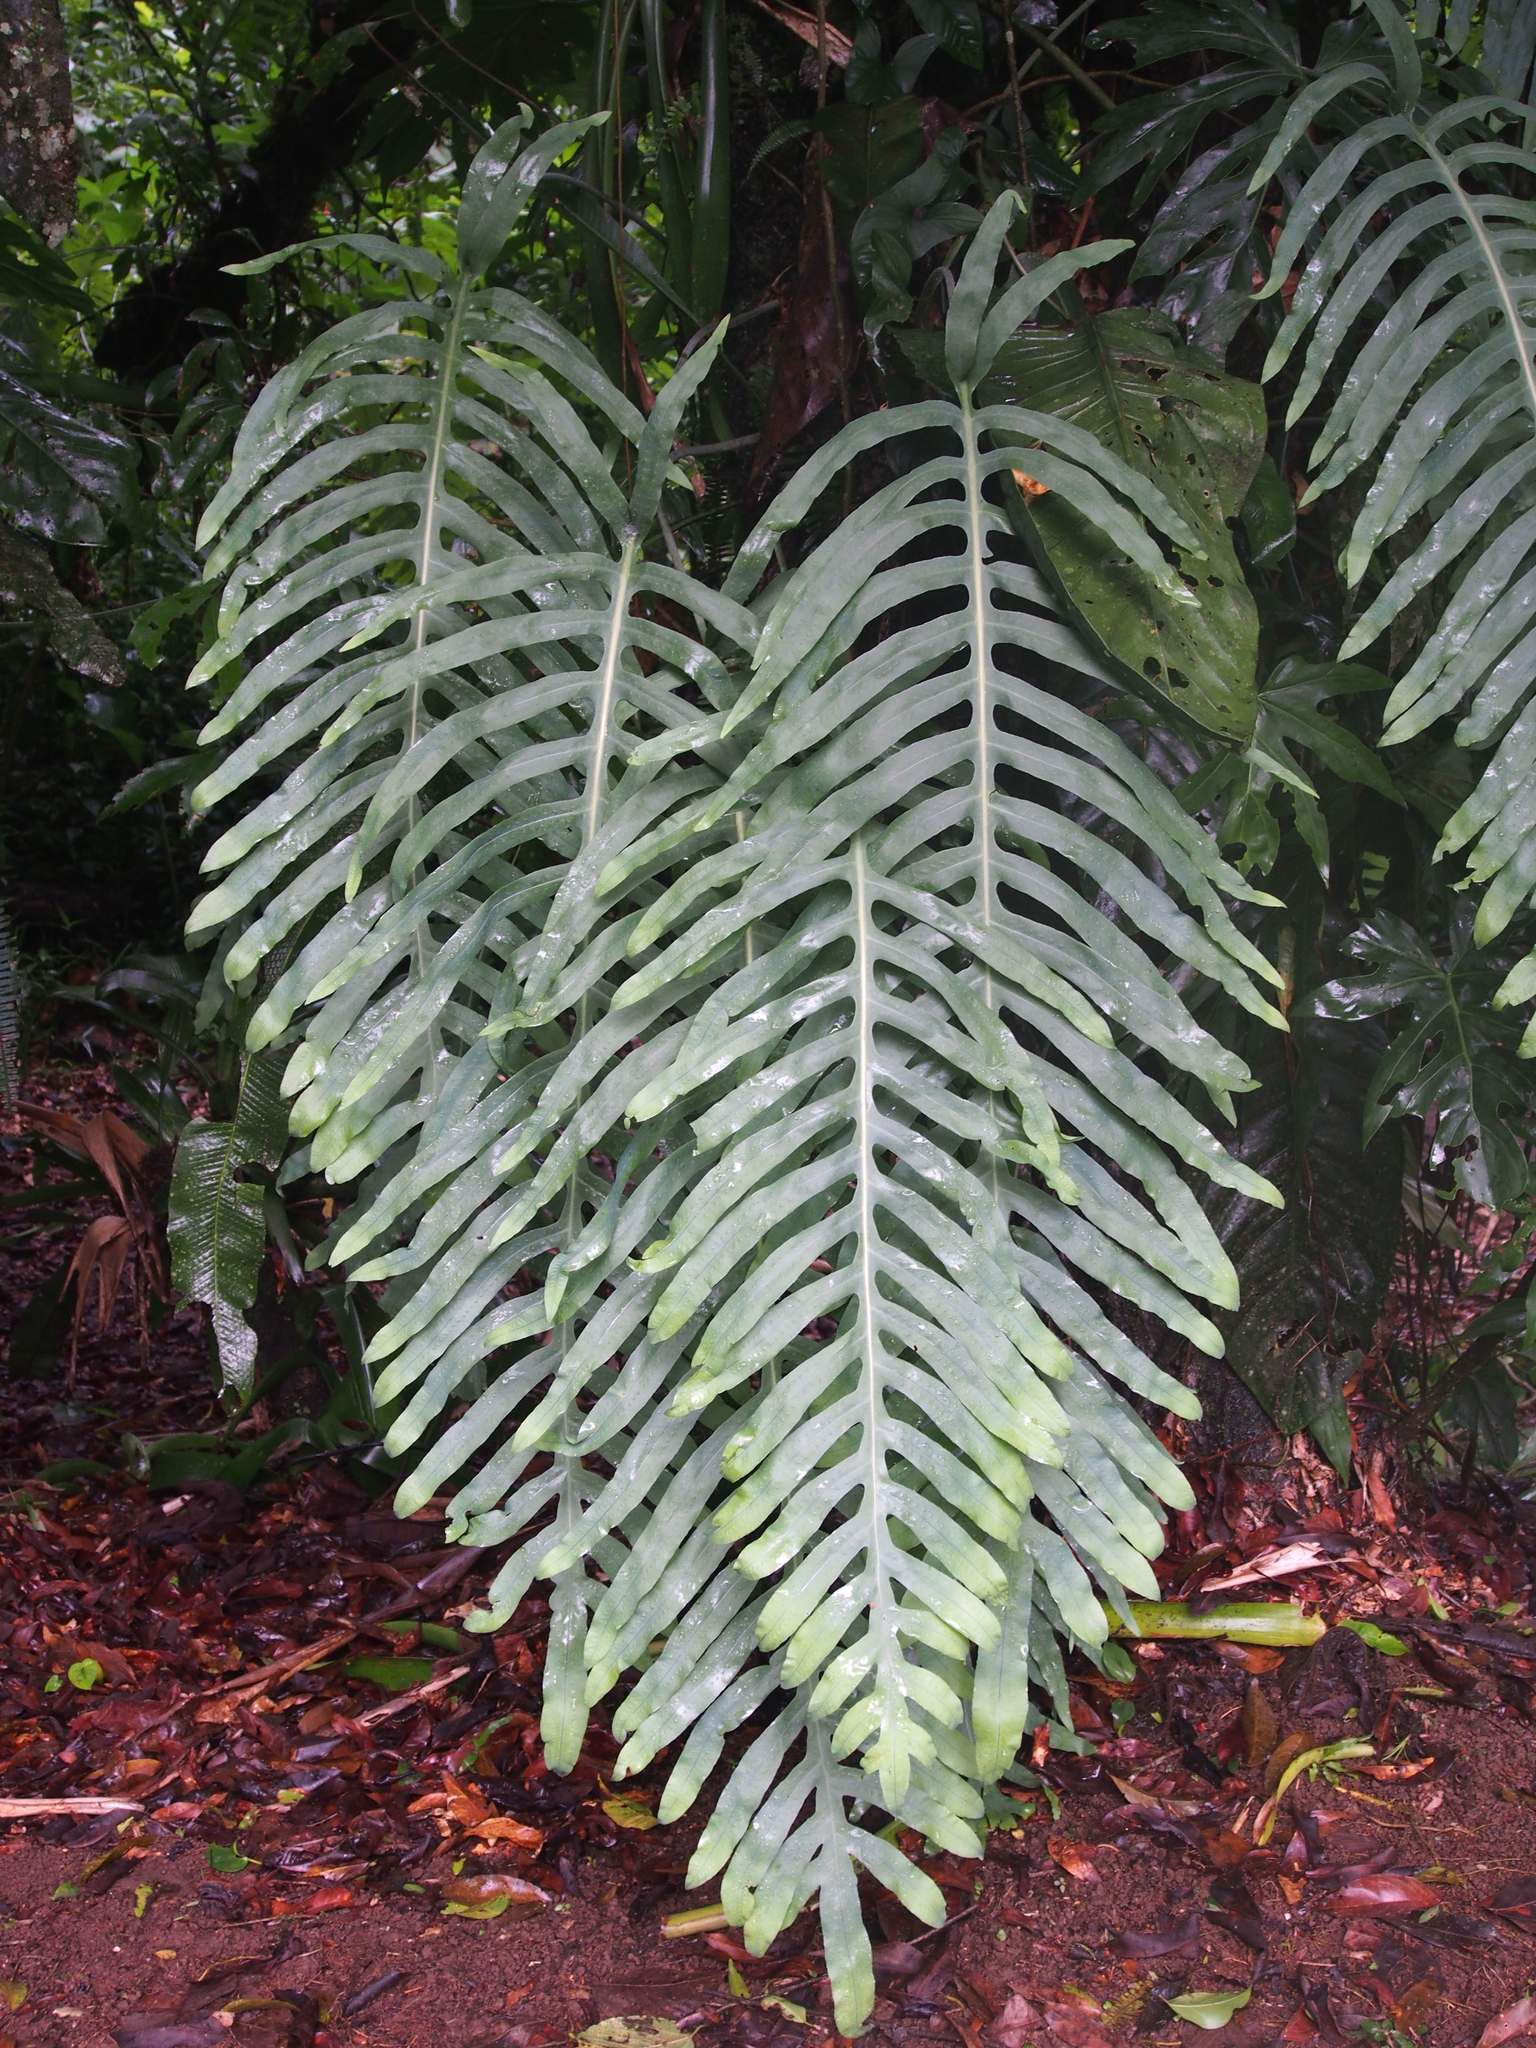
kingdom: Plantae
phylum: Tracheophyta
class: Polypodiopsida
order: Polypodiales
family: Polypodiaceae
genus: Phlebodium
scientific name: Phlebodium pseudoaureum
